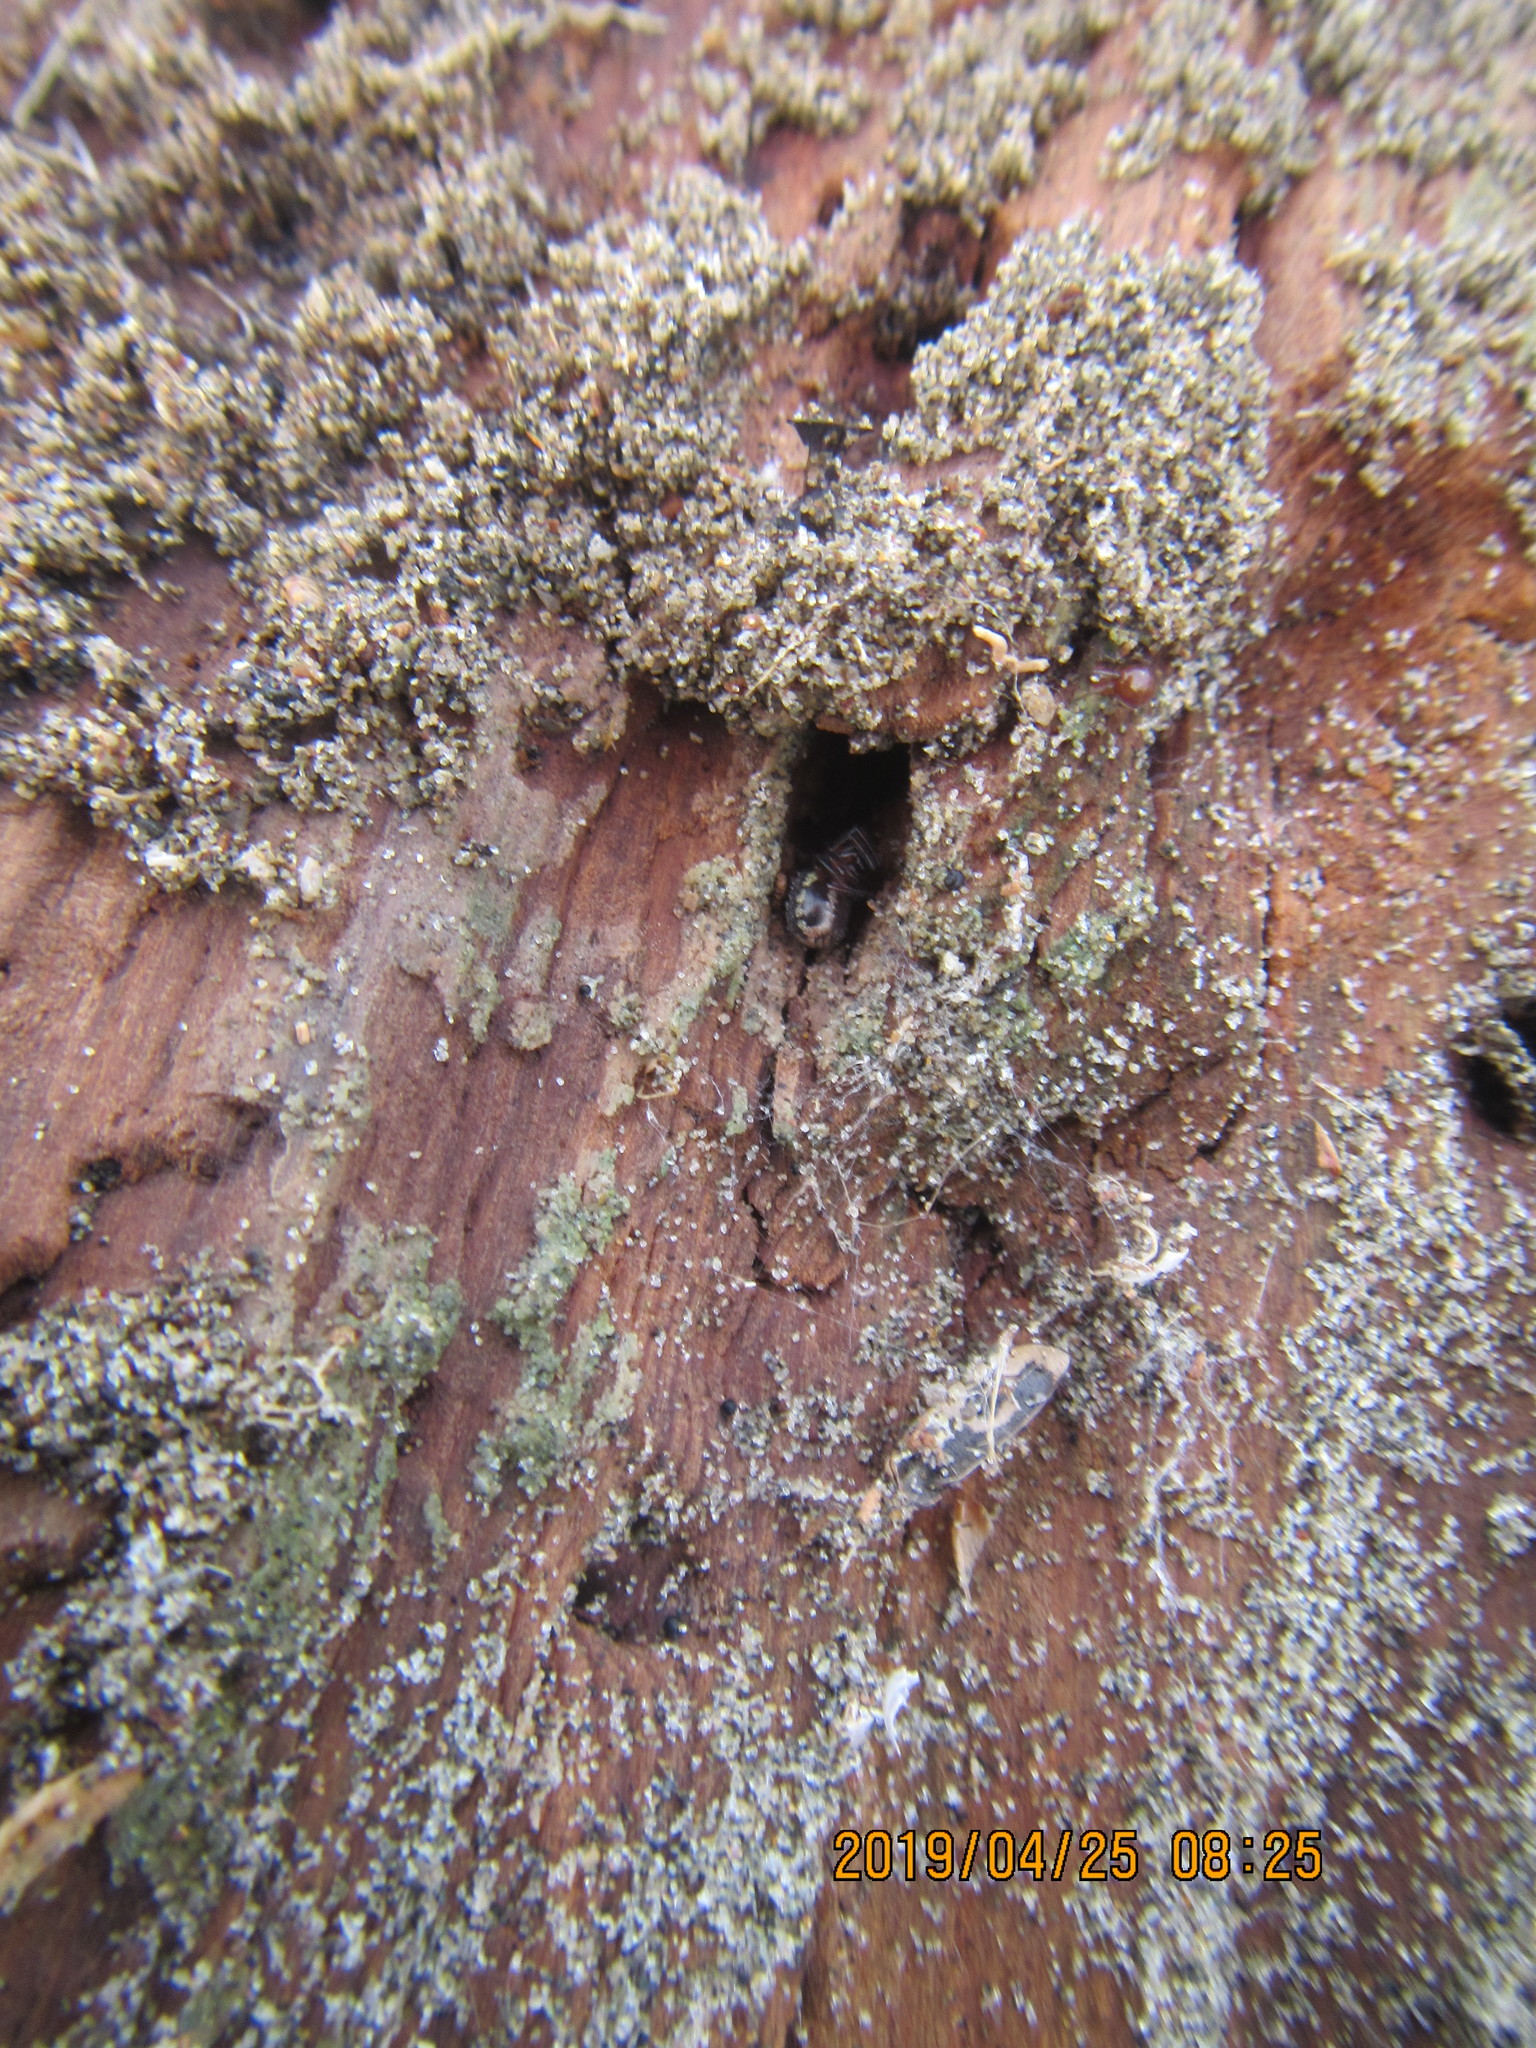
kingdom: Animalia
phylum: Arthropoda
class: Arachnida
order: Araneae
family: Theridiidae
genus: Steatoda
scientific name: Steatoda lepida
